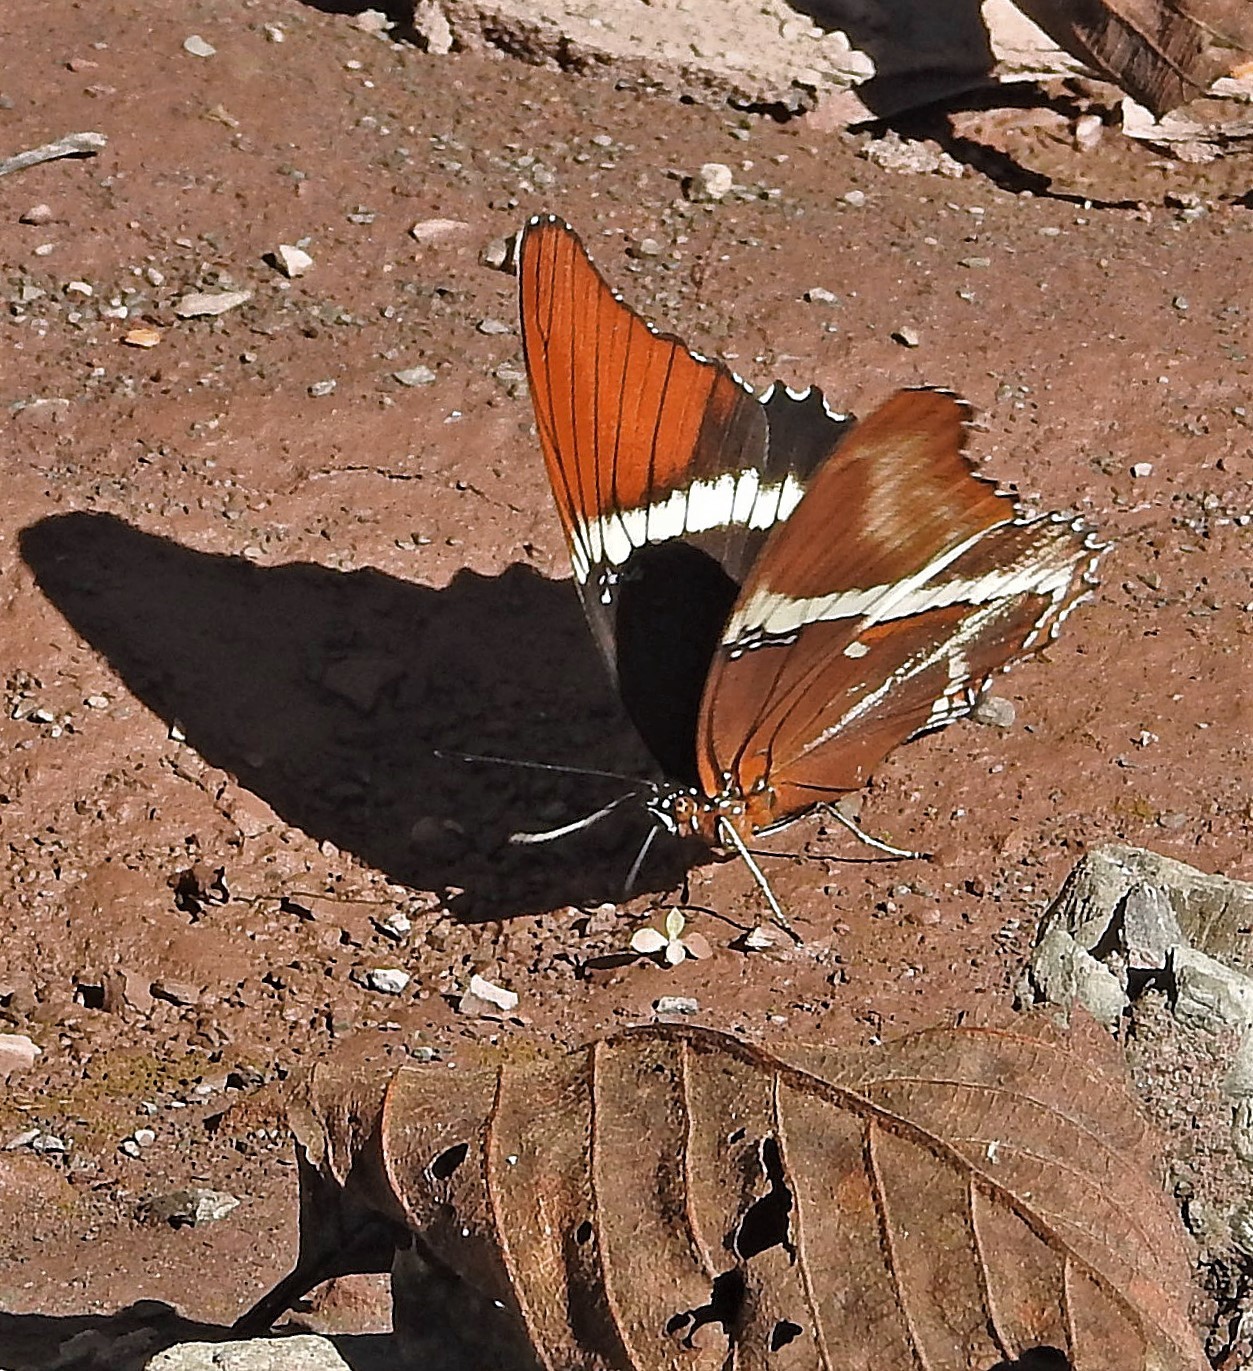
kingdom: Animalia
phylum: Arthropoda
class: Insecta
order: Lepidoptera
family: Nymphalidae
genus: Siproeta
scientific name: Siproeta epaphus
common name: Rusty-tipped page
